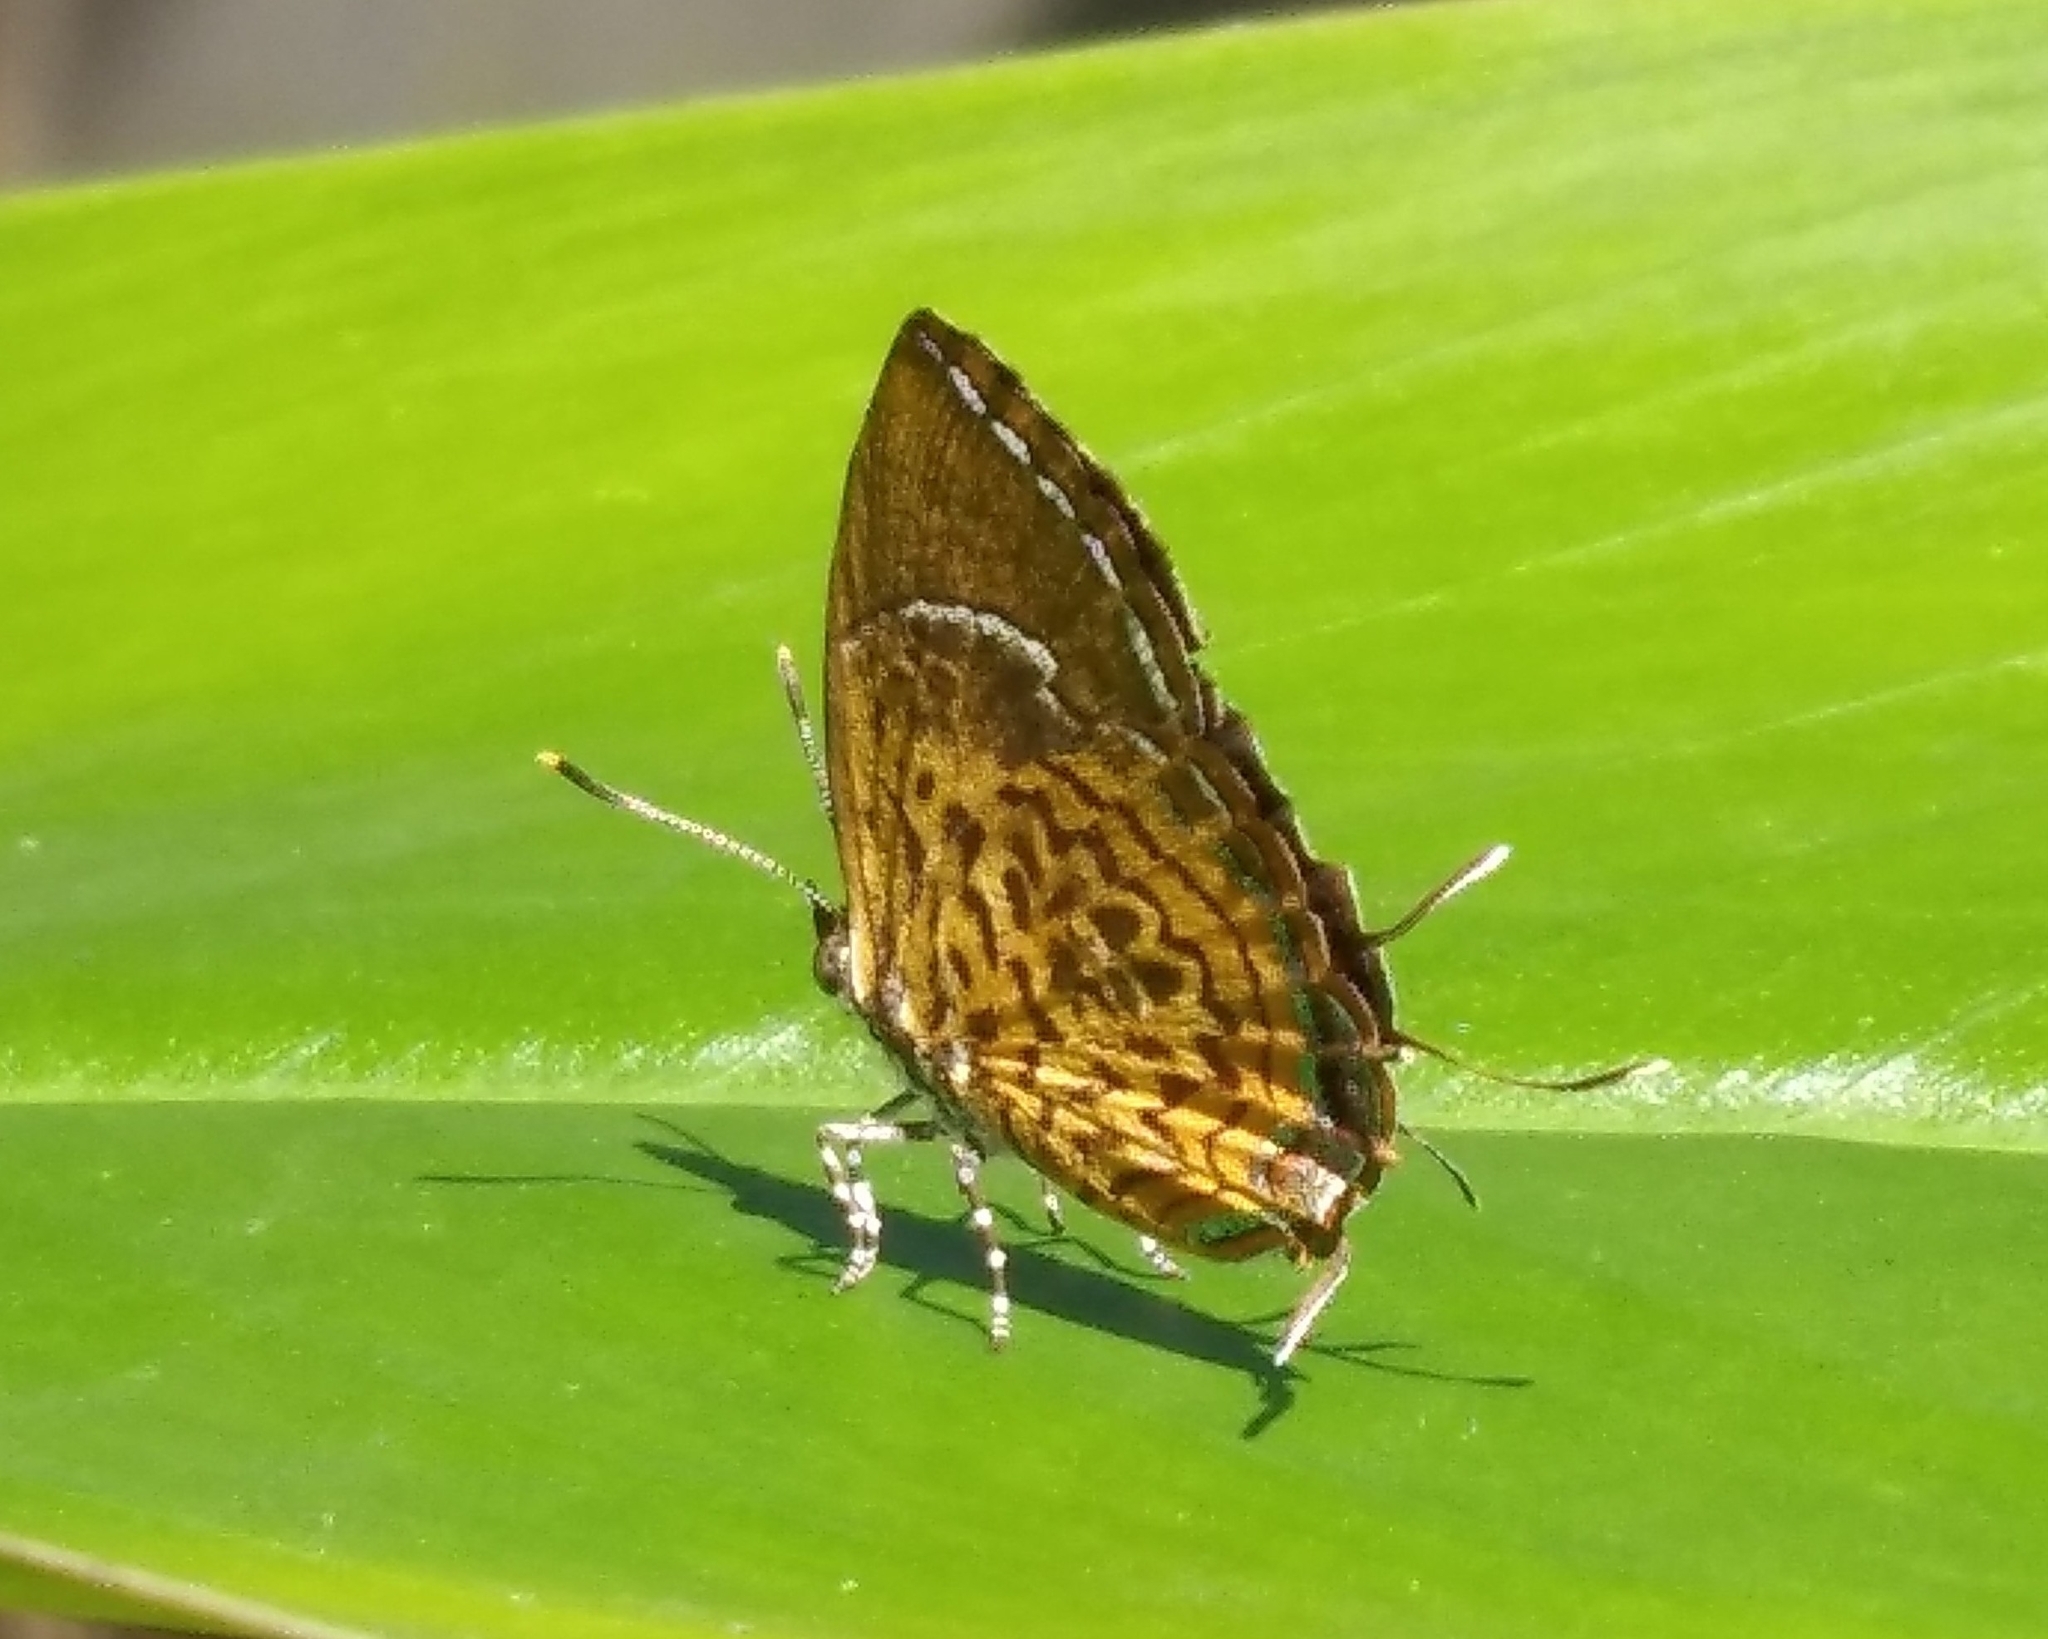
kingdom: Animalia
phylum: Arthropoda
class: Insecta
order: Lepidoptera
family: Lycaenidae
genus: Rathinda
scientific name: Rathinda amor
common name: Monkey puzzle
